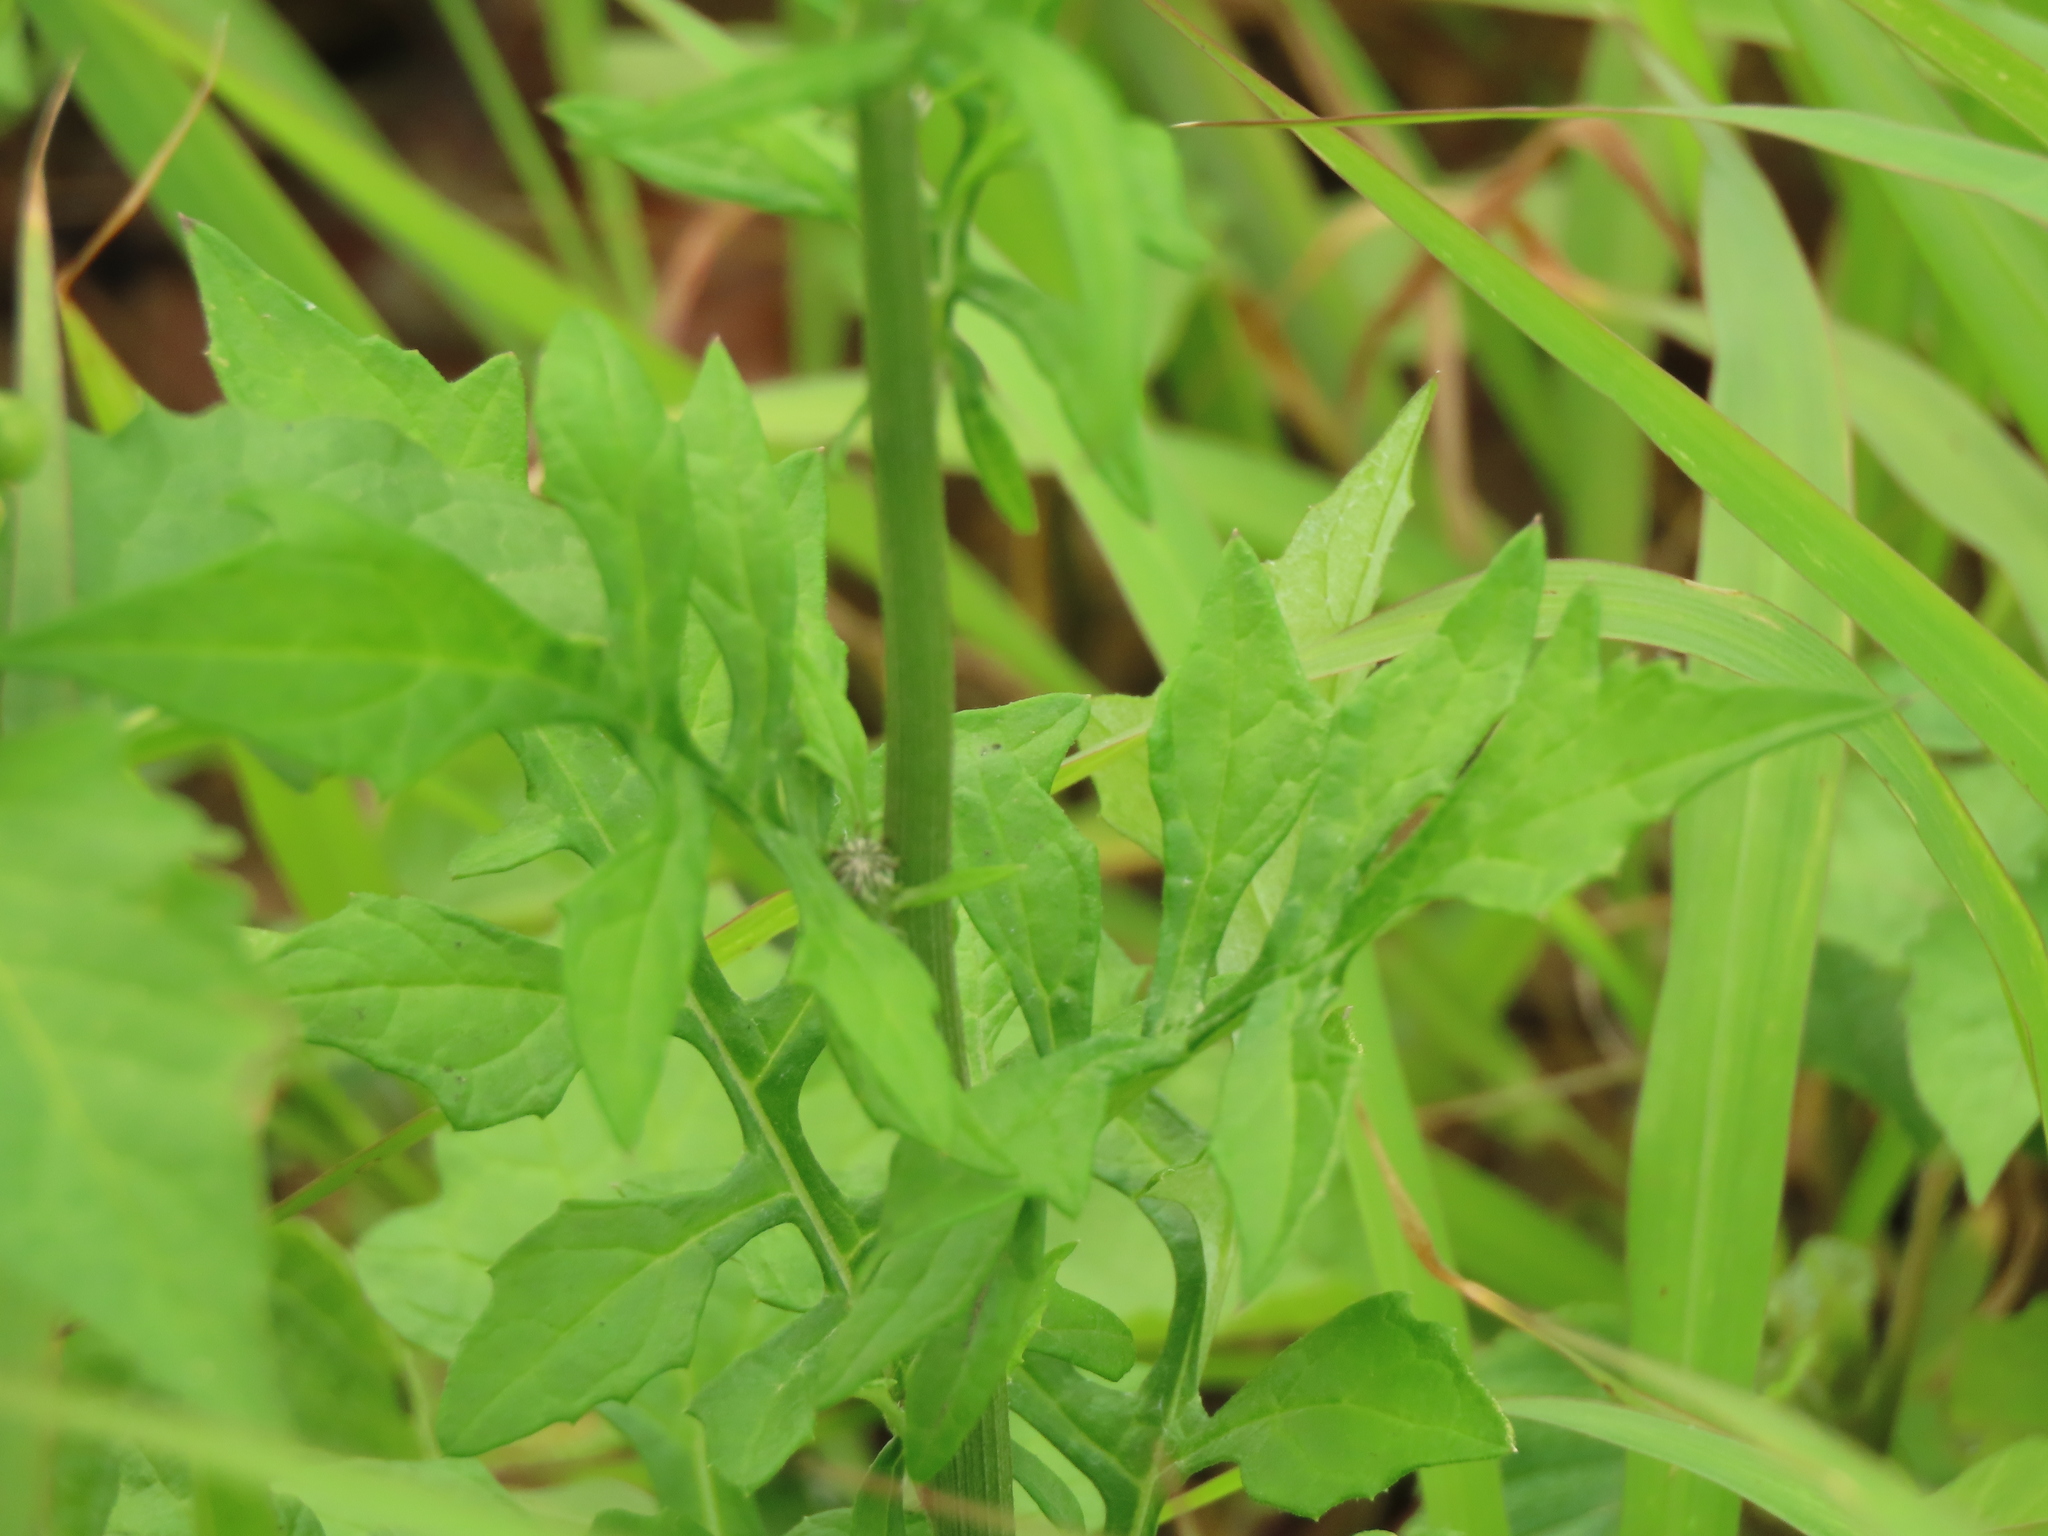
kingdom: Plantae
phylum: Tracheophyta
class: Magnoliopsida
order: Asterales
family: Asteraceae
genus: Saussurea
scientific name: Saussurea lyrata
